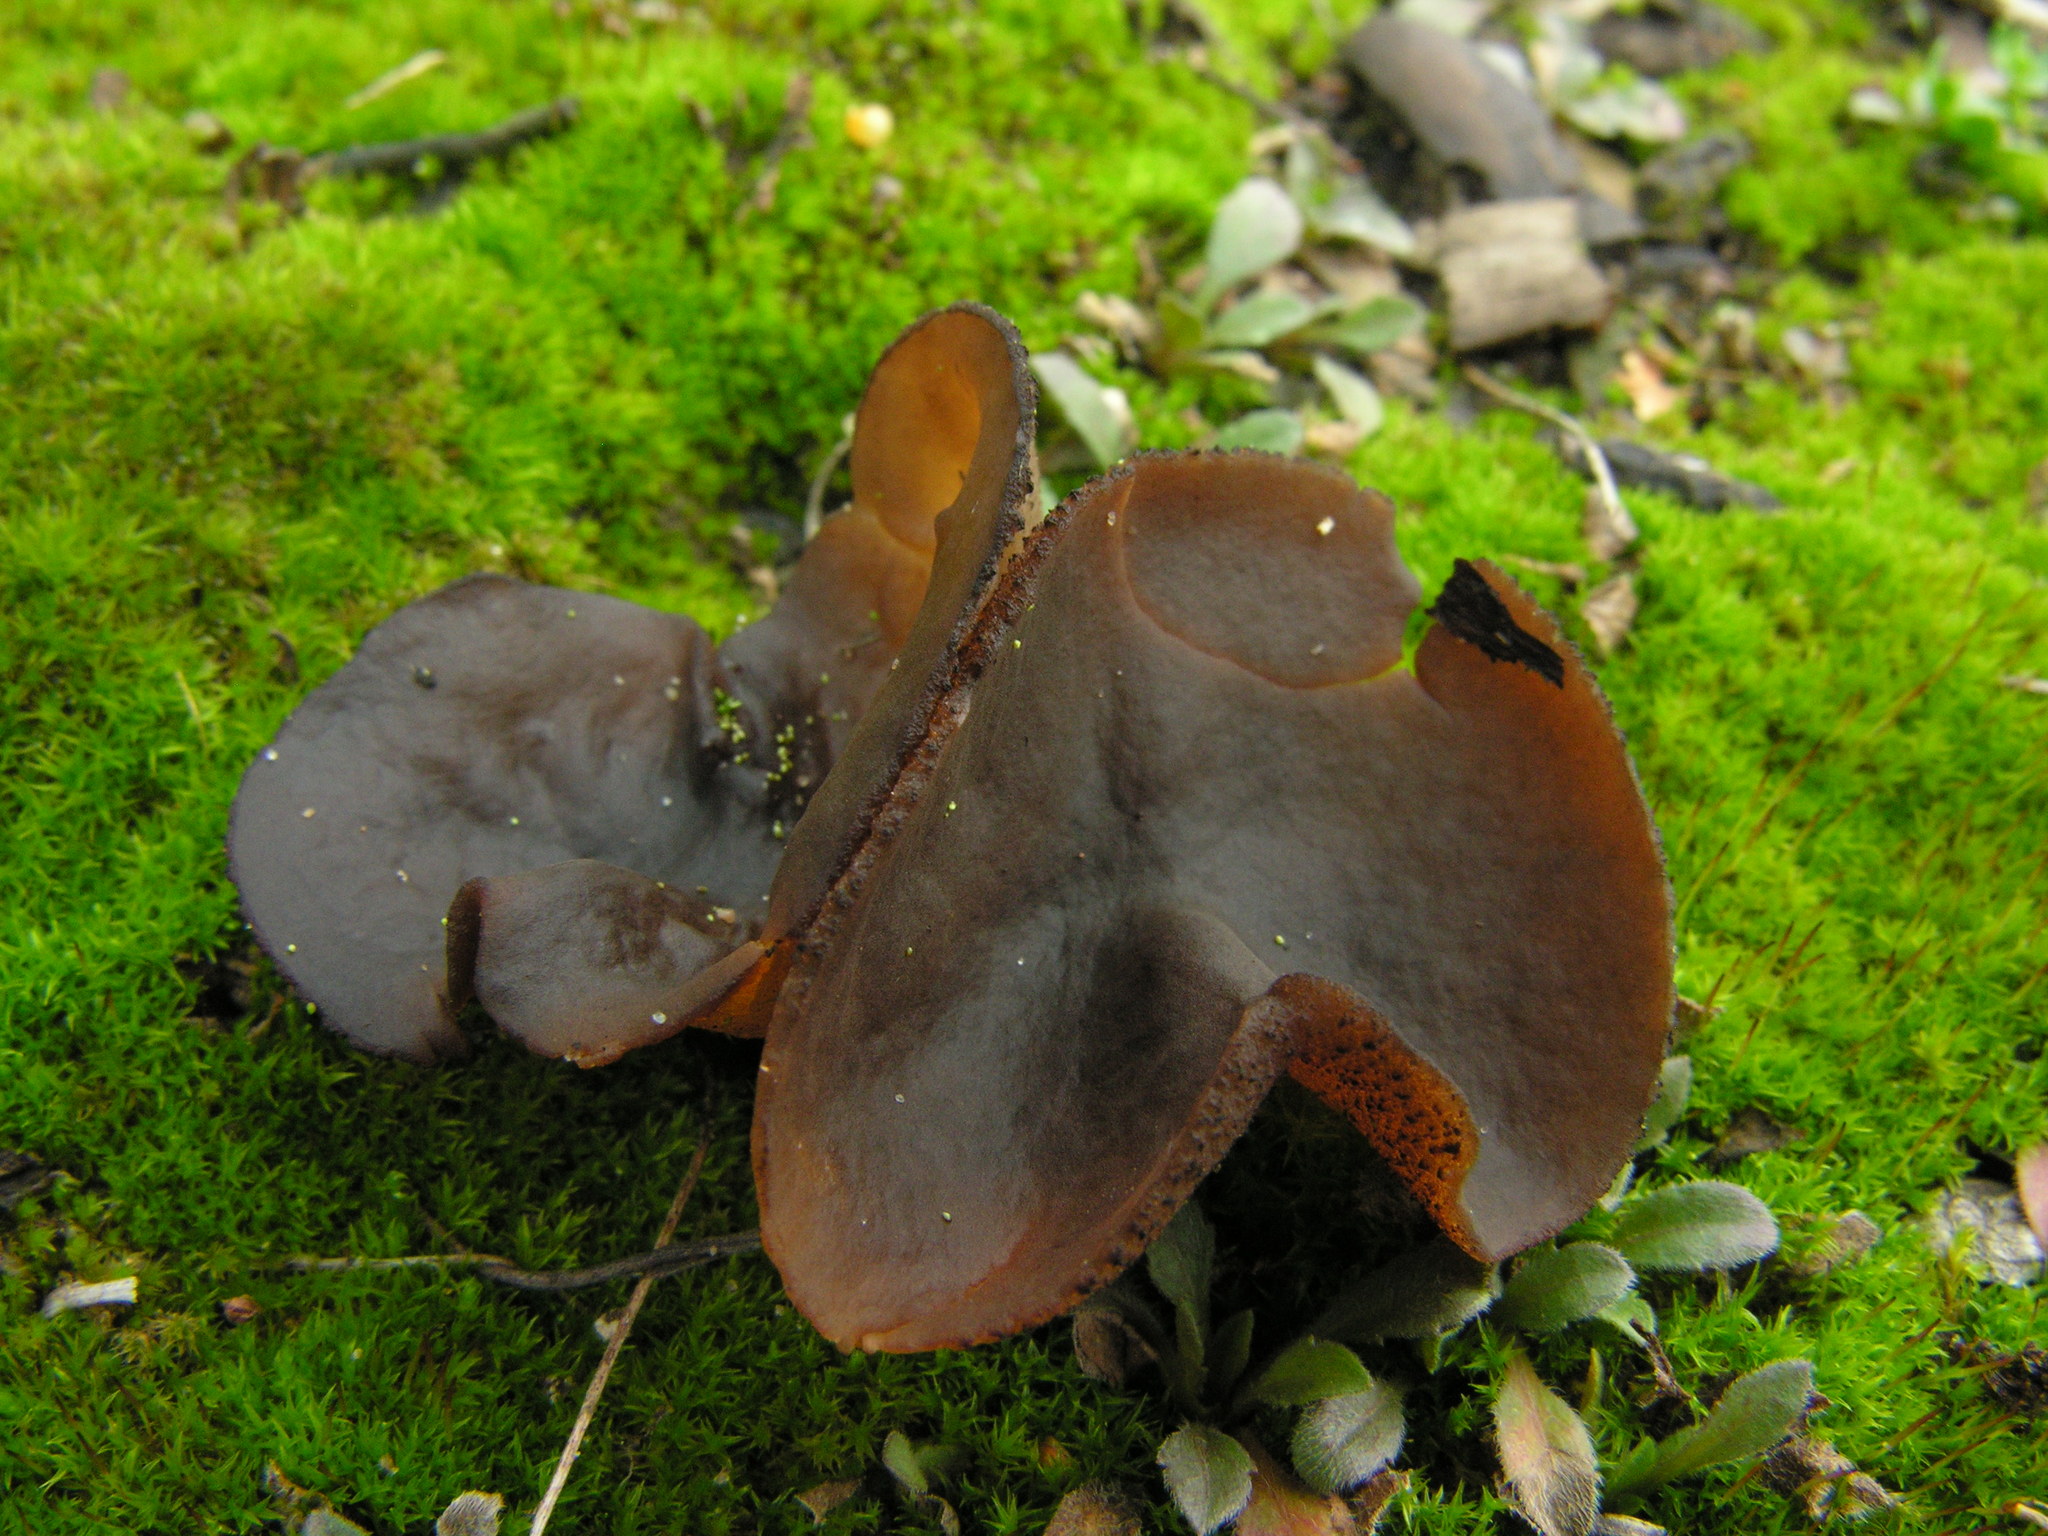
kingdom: Fungi
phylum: Ascomycota
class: Pezizomycetes
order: Pezizales
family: Pyronemataceae
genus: Plicaria
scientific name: Plicaria endocarpoides
